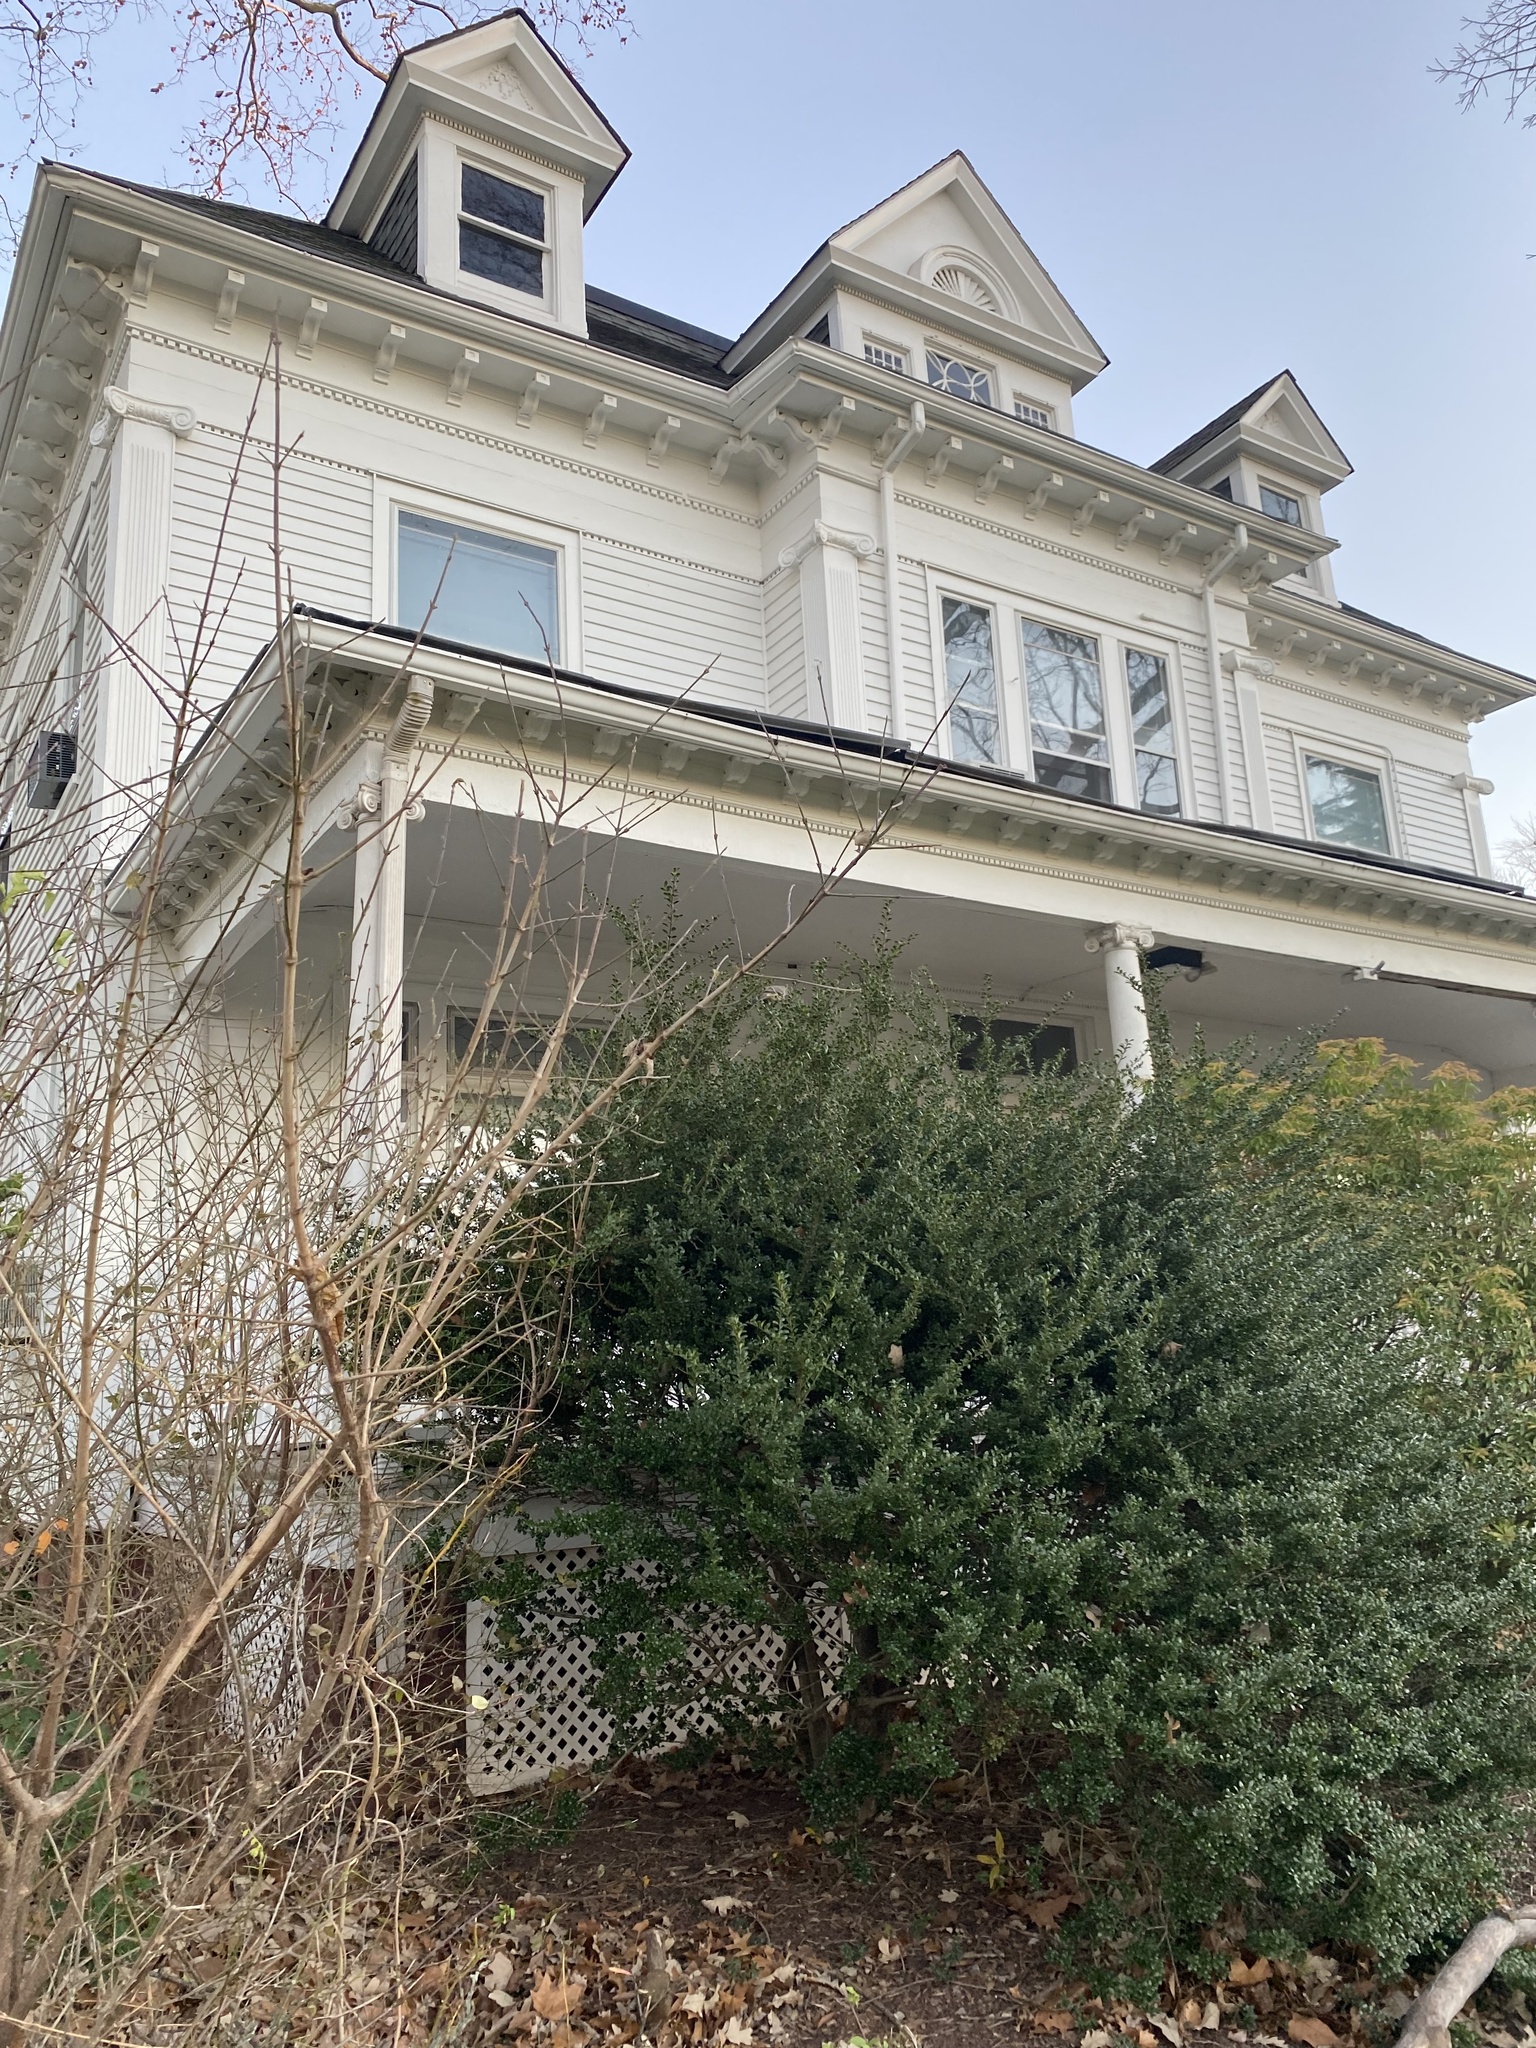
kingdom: Animalia
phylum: Chordata
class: Aves
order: Passeriformes
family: Mimidae
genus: Mimus
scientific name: Mimus polyglottos
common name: Northern mockingbird
